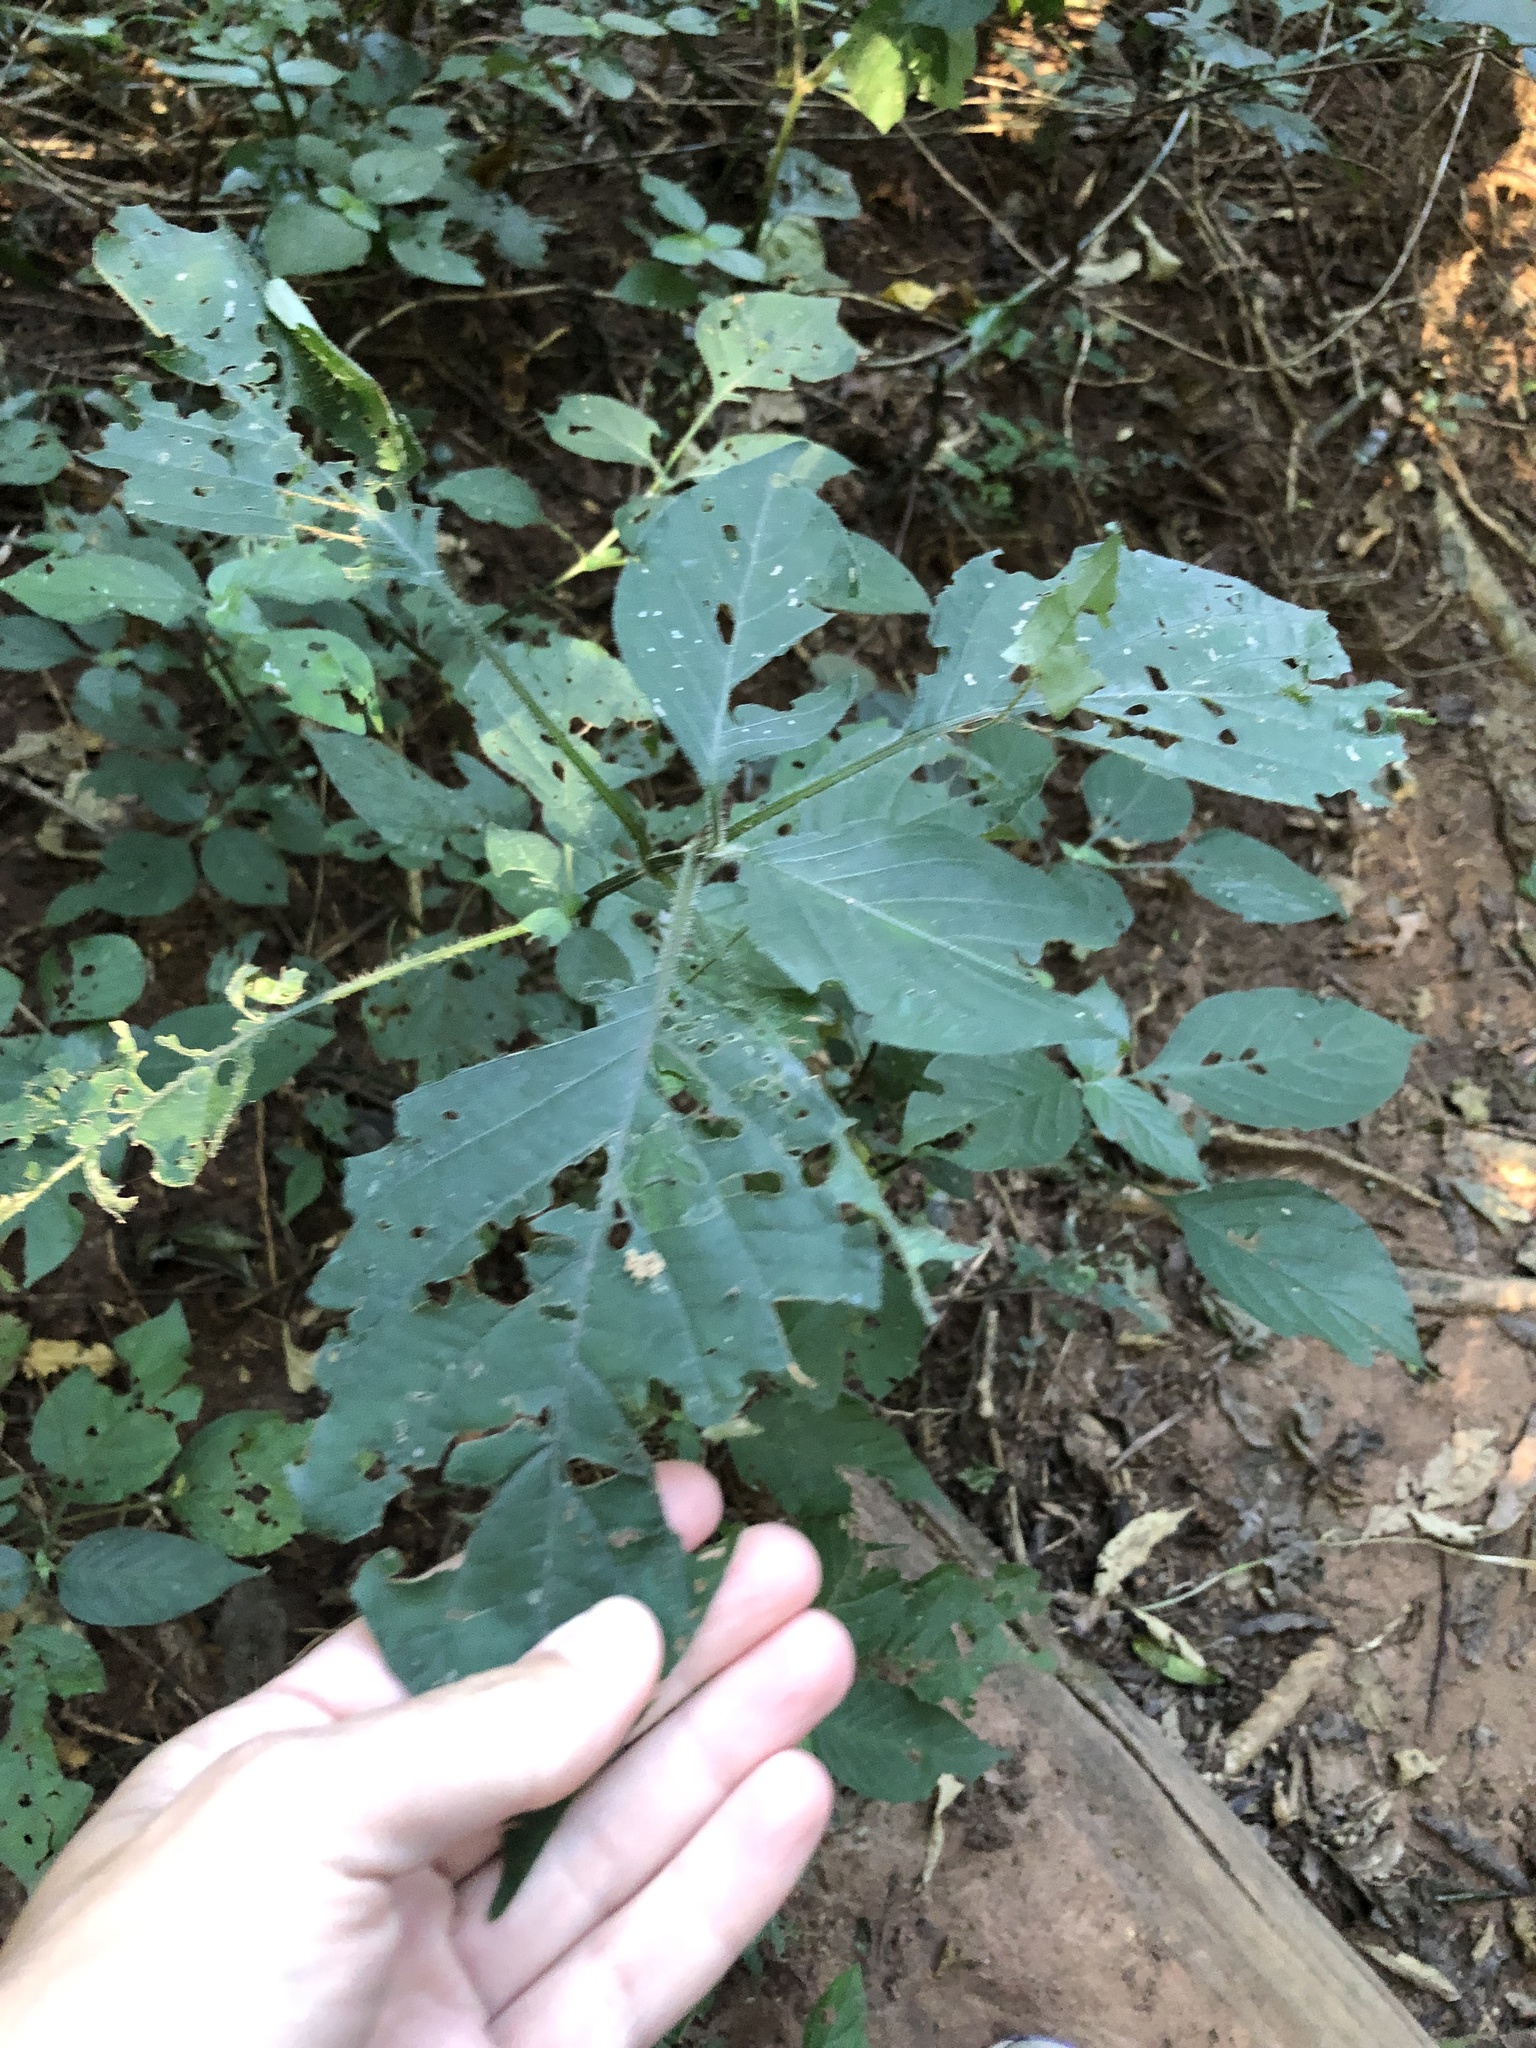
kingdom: Plantae
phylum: Tracheophyta
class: Magnoliopsida
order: Lamiales
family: Acanthaceae
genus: Isoglossa
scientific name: Isoglossa woodii
